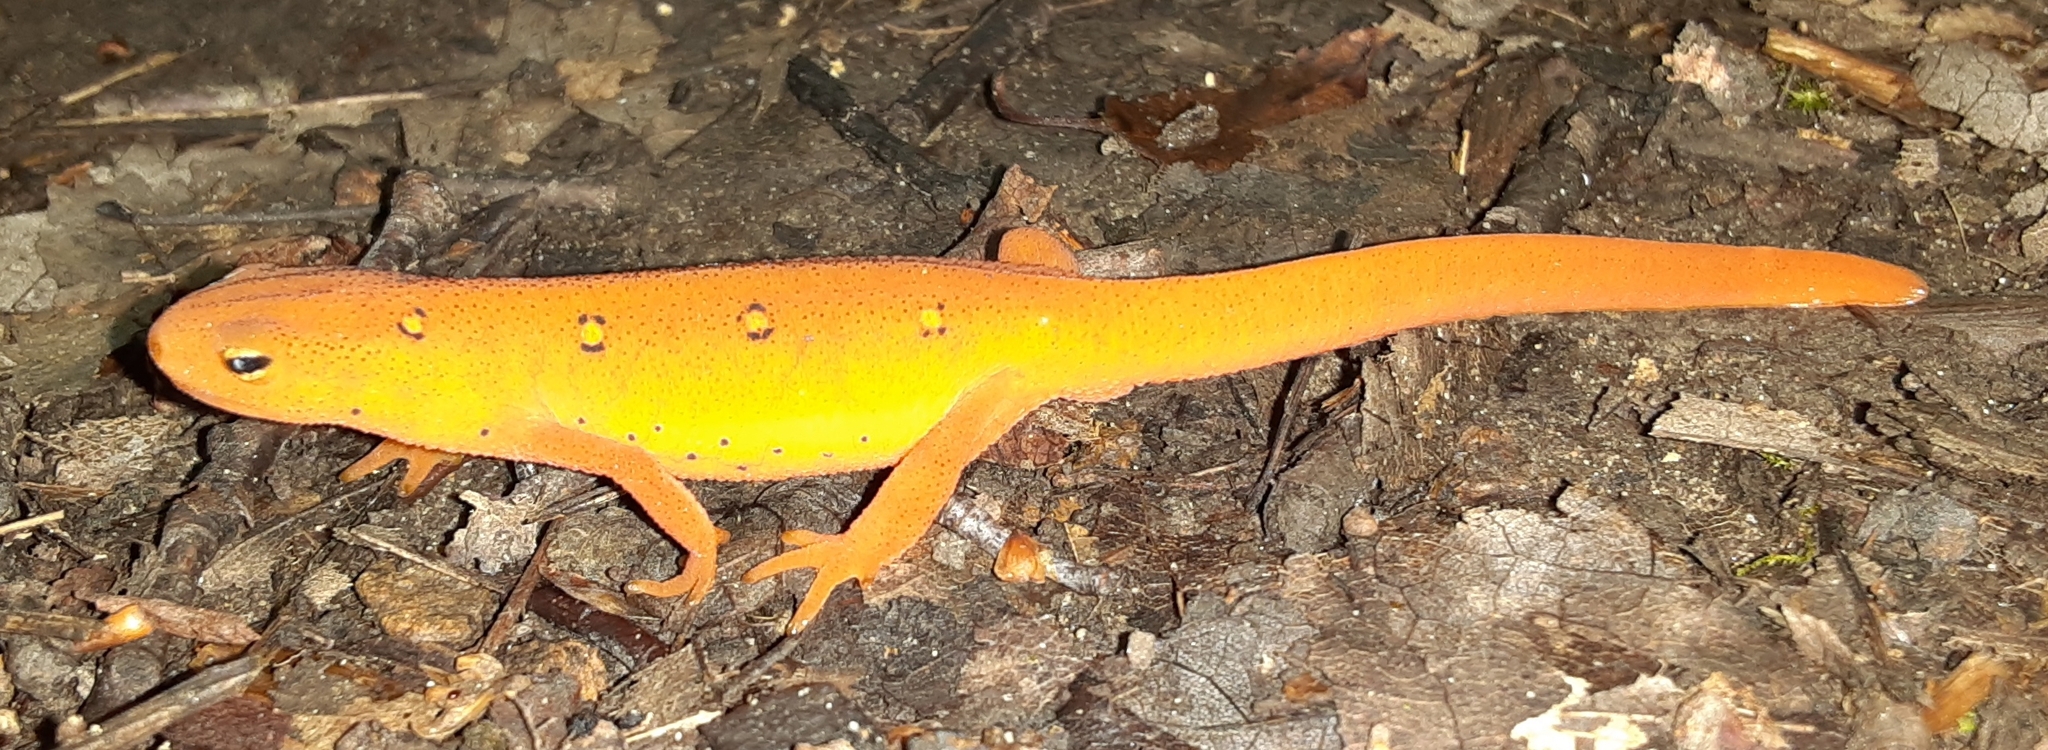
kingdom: Animalia
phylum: Chordata
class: Amphibia
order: Caudata
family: Salamandridae
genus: Notophthalmus
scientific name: Notophthalmus viridescens
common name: Eastern newt
